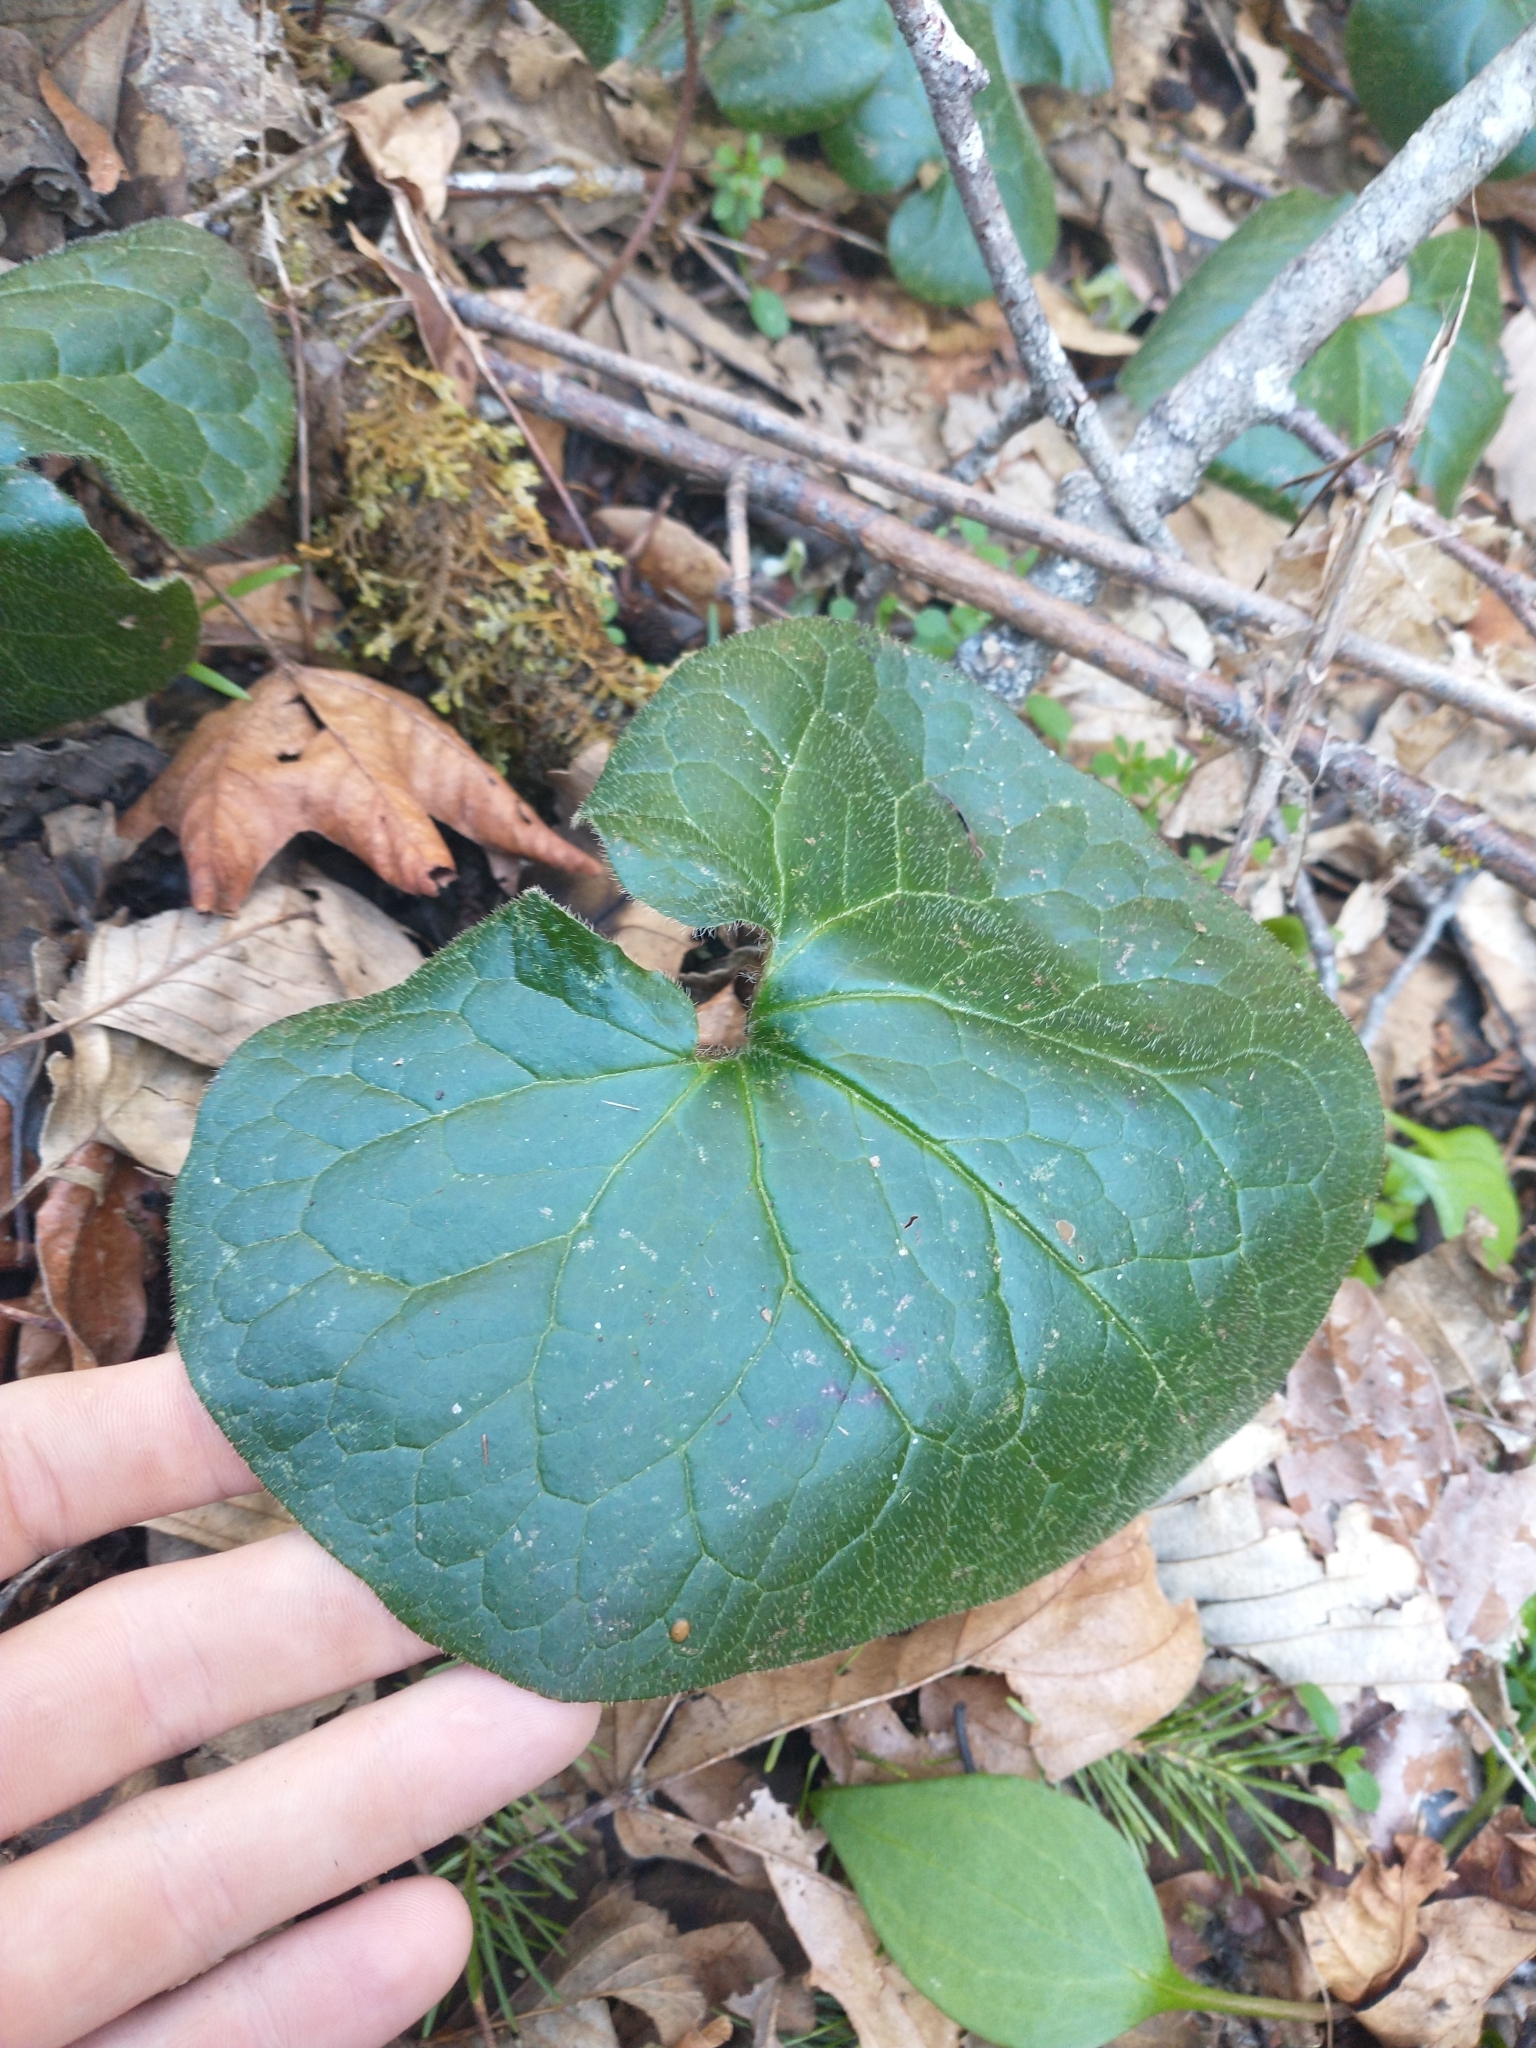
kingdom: Plantae
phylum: Tracheophyta
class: Magnoliopsida
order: Piperales
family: Aristolochiaceae
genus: Asarum
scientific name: Asarum caudatum
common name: Wild ginger
